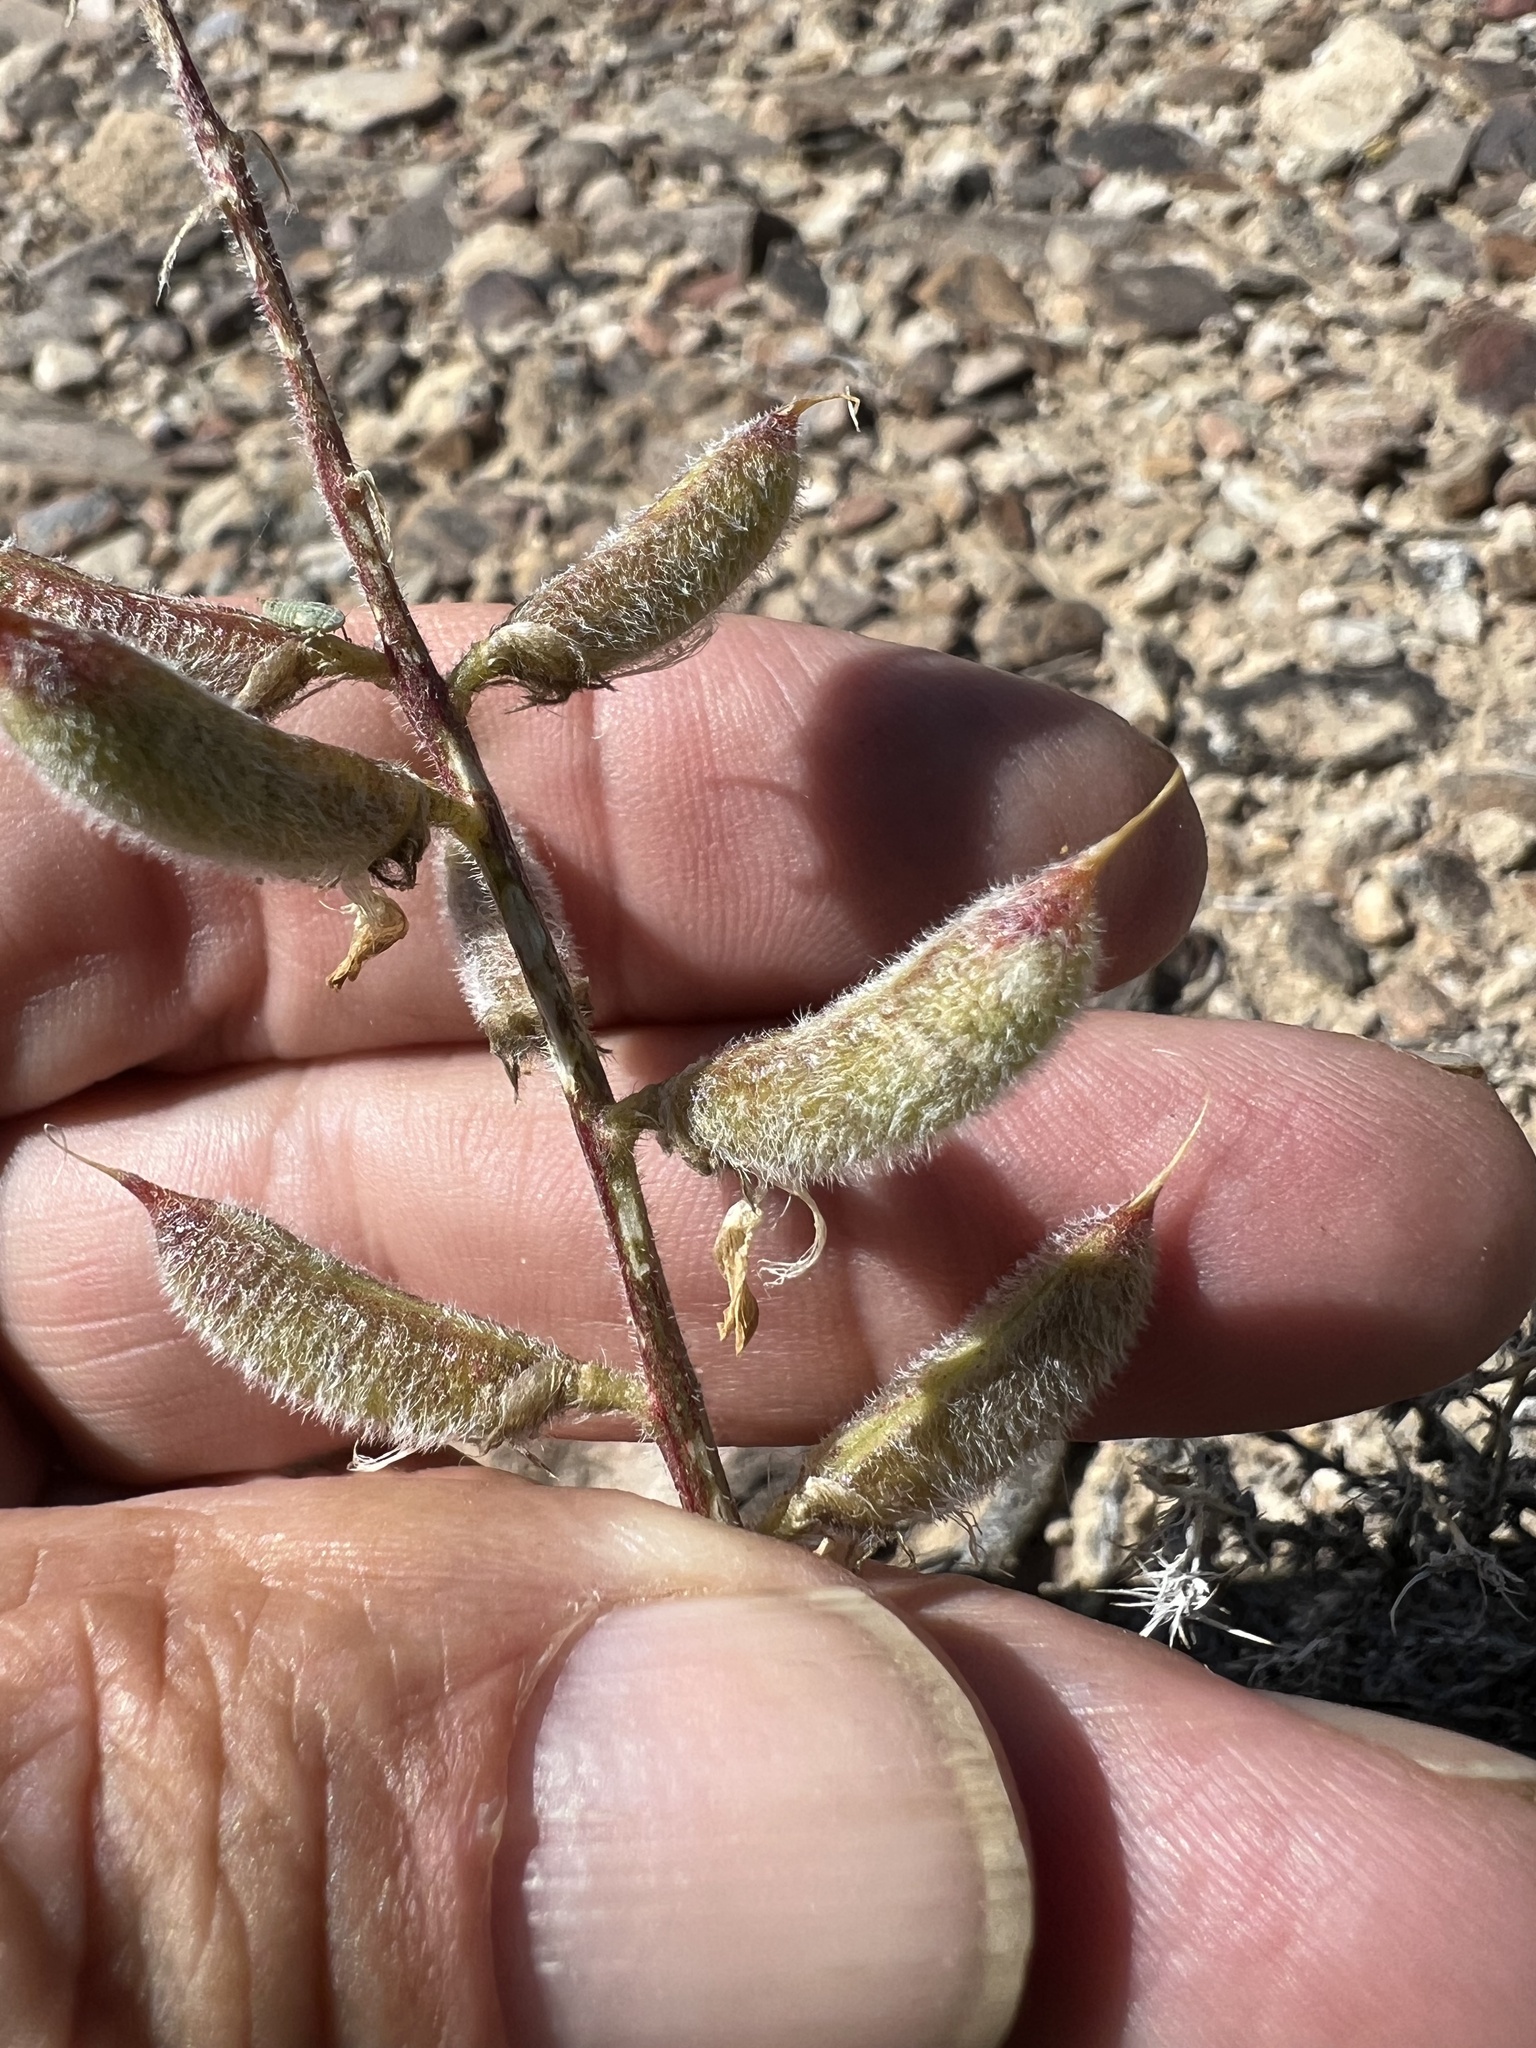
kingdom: Plantae
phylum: Tracheophyta
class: Magnoliopsida
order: Fabales
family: Fabaceae
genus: Astragalus
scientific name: Astragalus minthorniae
